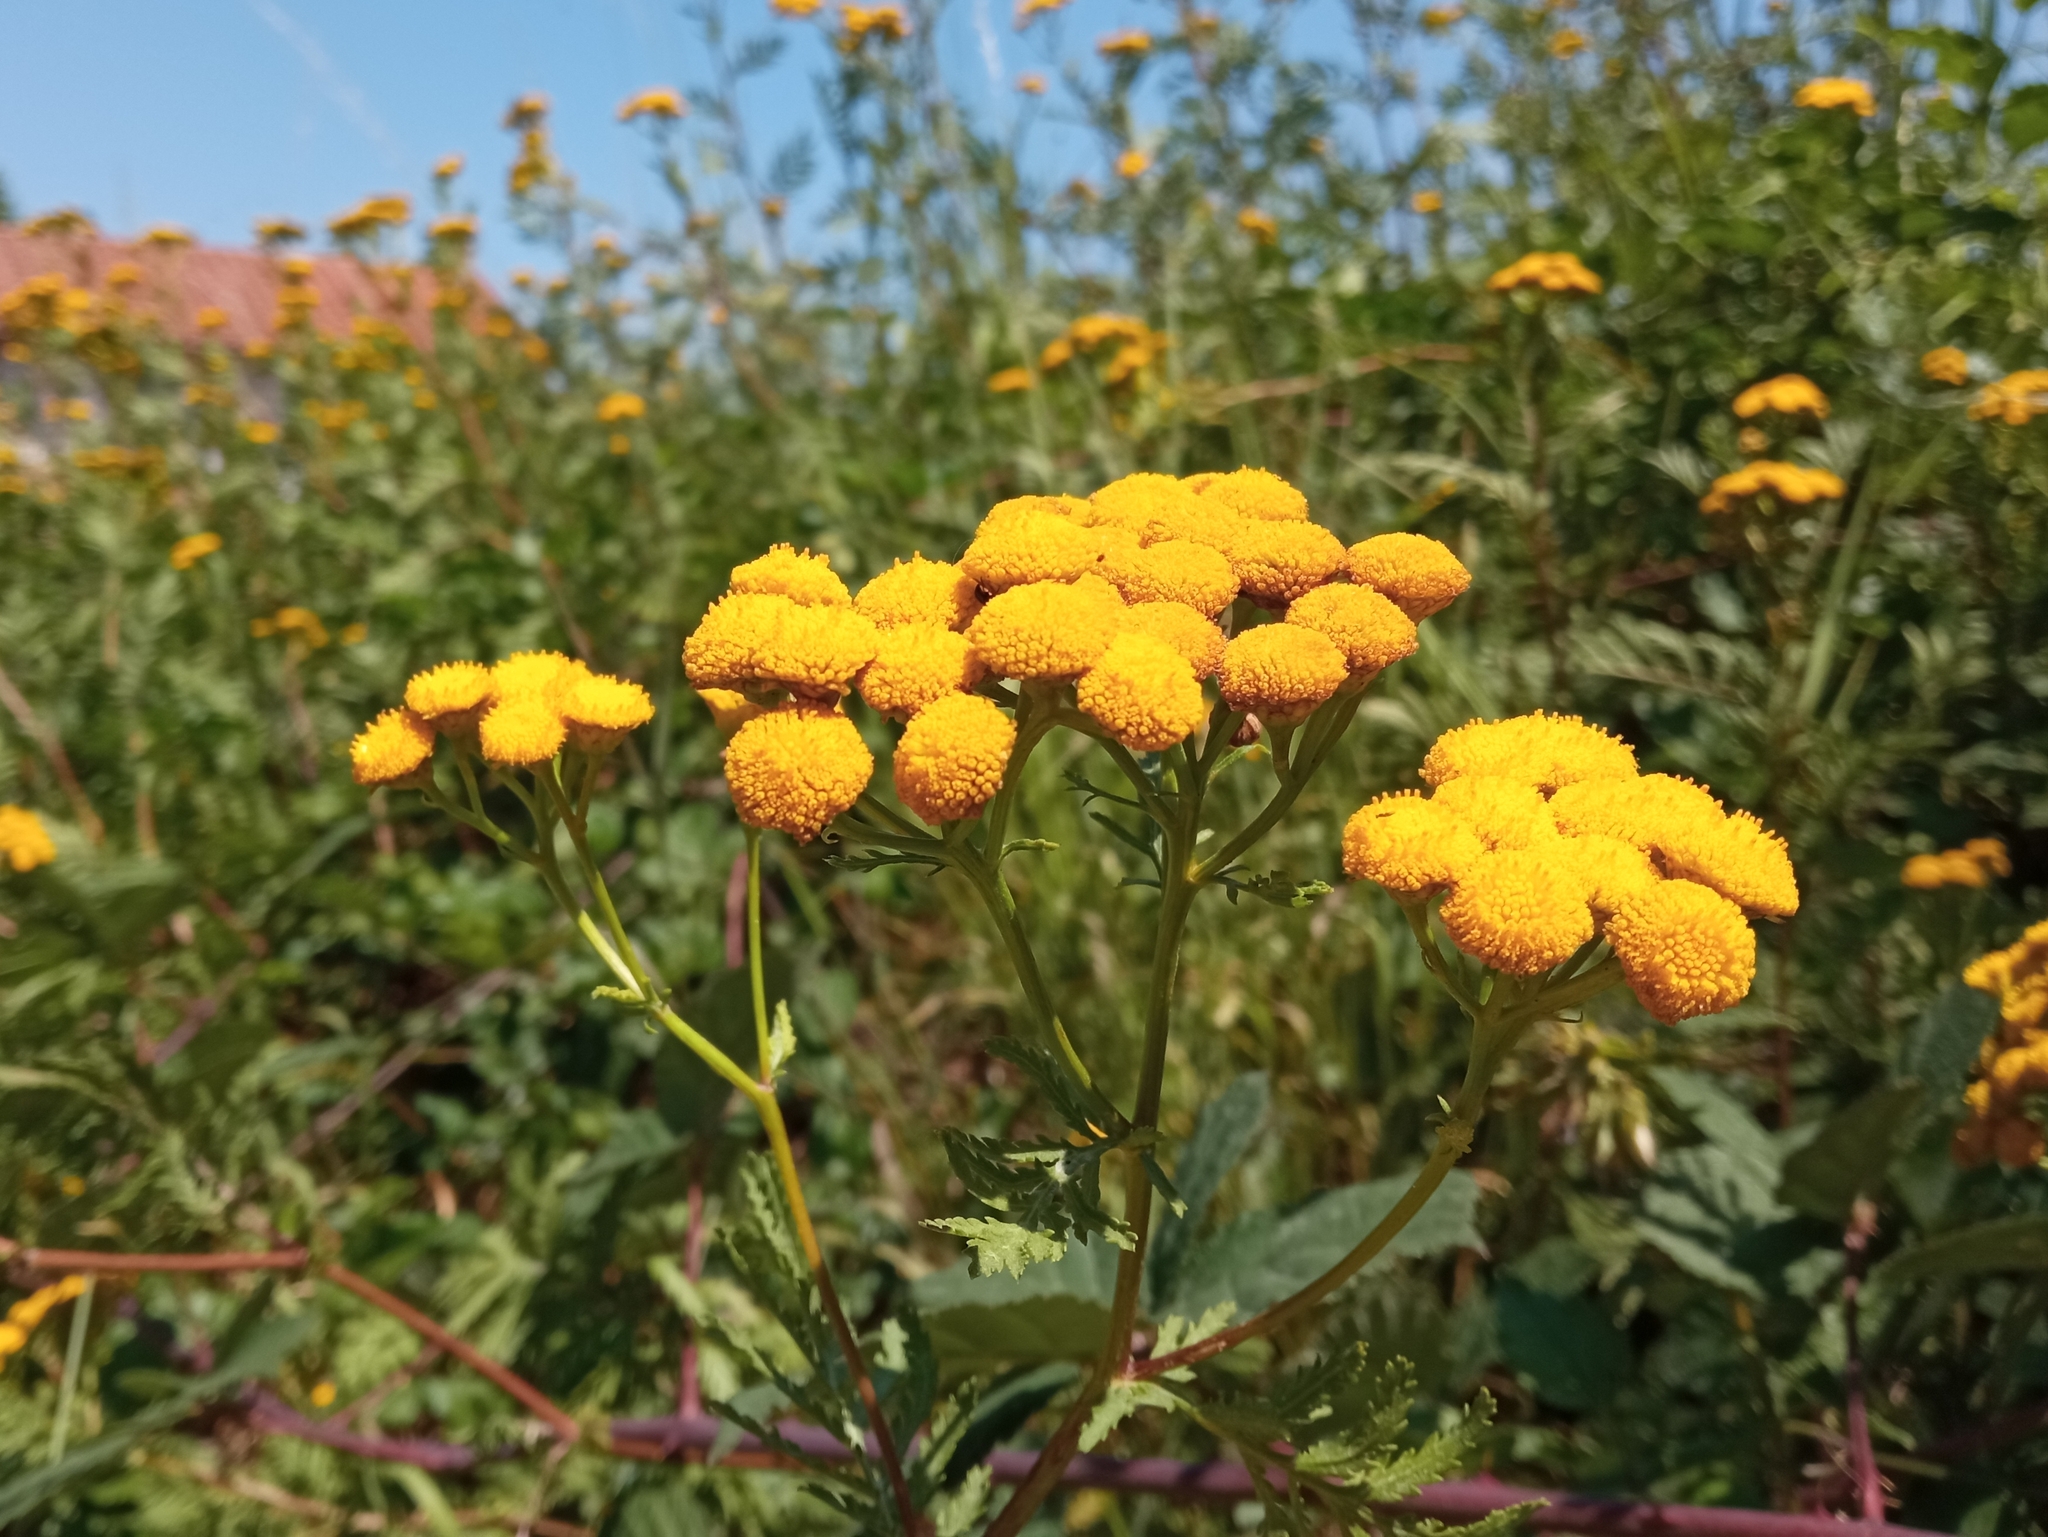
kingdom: Plantae
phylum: Tracheophyta
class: Magnoliopsida
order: Asterales
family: Asteraceae
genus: Tanacetum
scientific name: Tanacetum vulgare
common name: Common tansy
